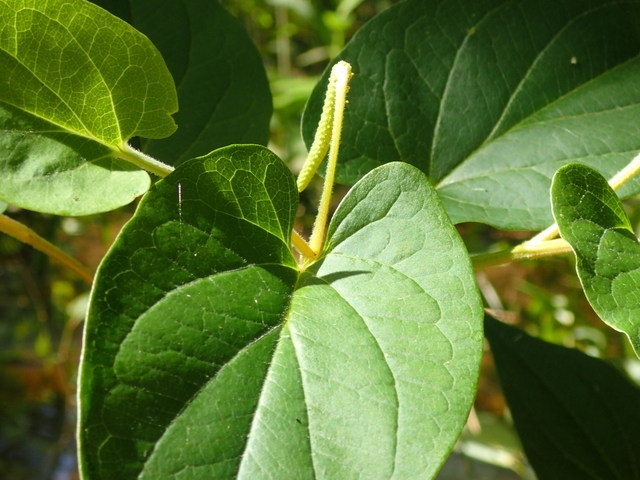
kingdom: Plantae
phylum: Tracheophyta
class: Magnoliopsida
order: Piperales
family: Saururaceae
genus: Saururus
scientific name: Saururus cernuus
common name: Lizard's-tail
